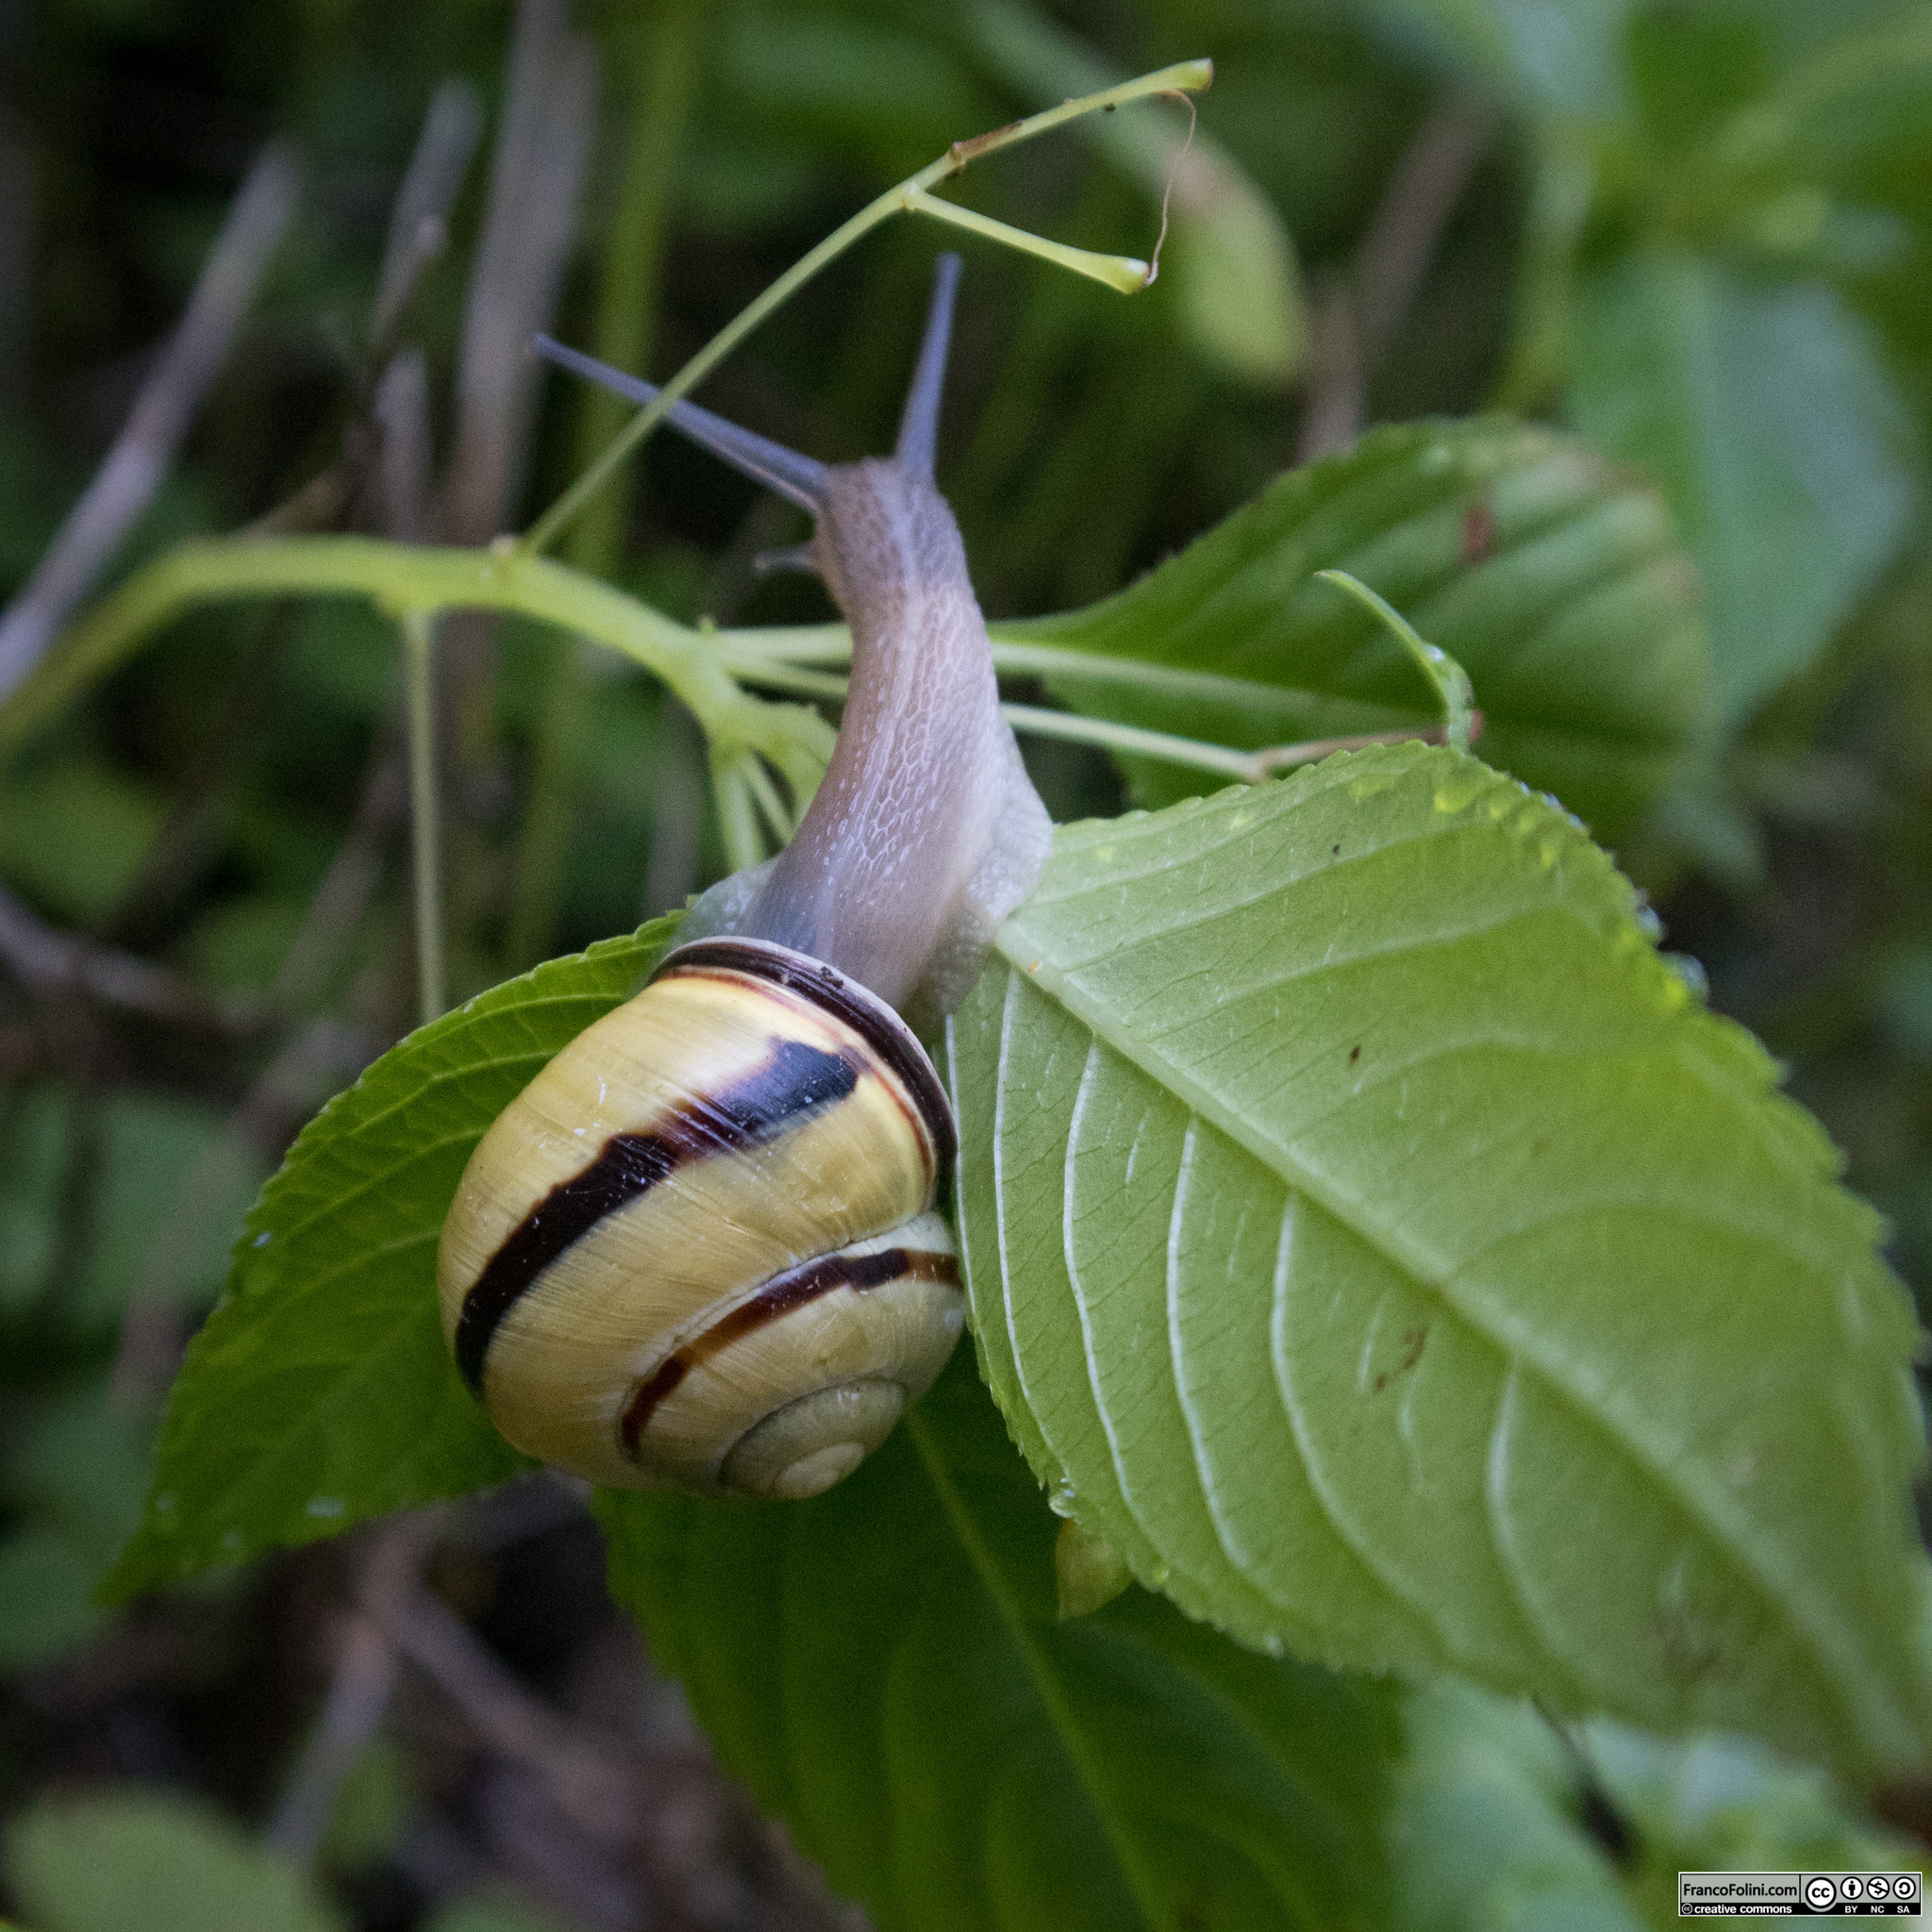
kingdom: Animalia
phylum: Mollusca
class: Gastropoda
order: Stylommatophora
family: Helicidae
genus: Cepaea
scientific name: Cepaea nemoralis
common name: Grovesnail
